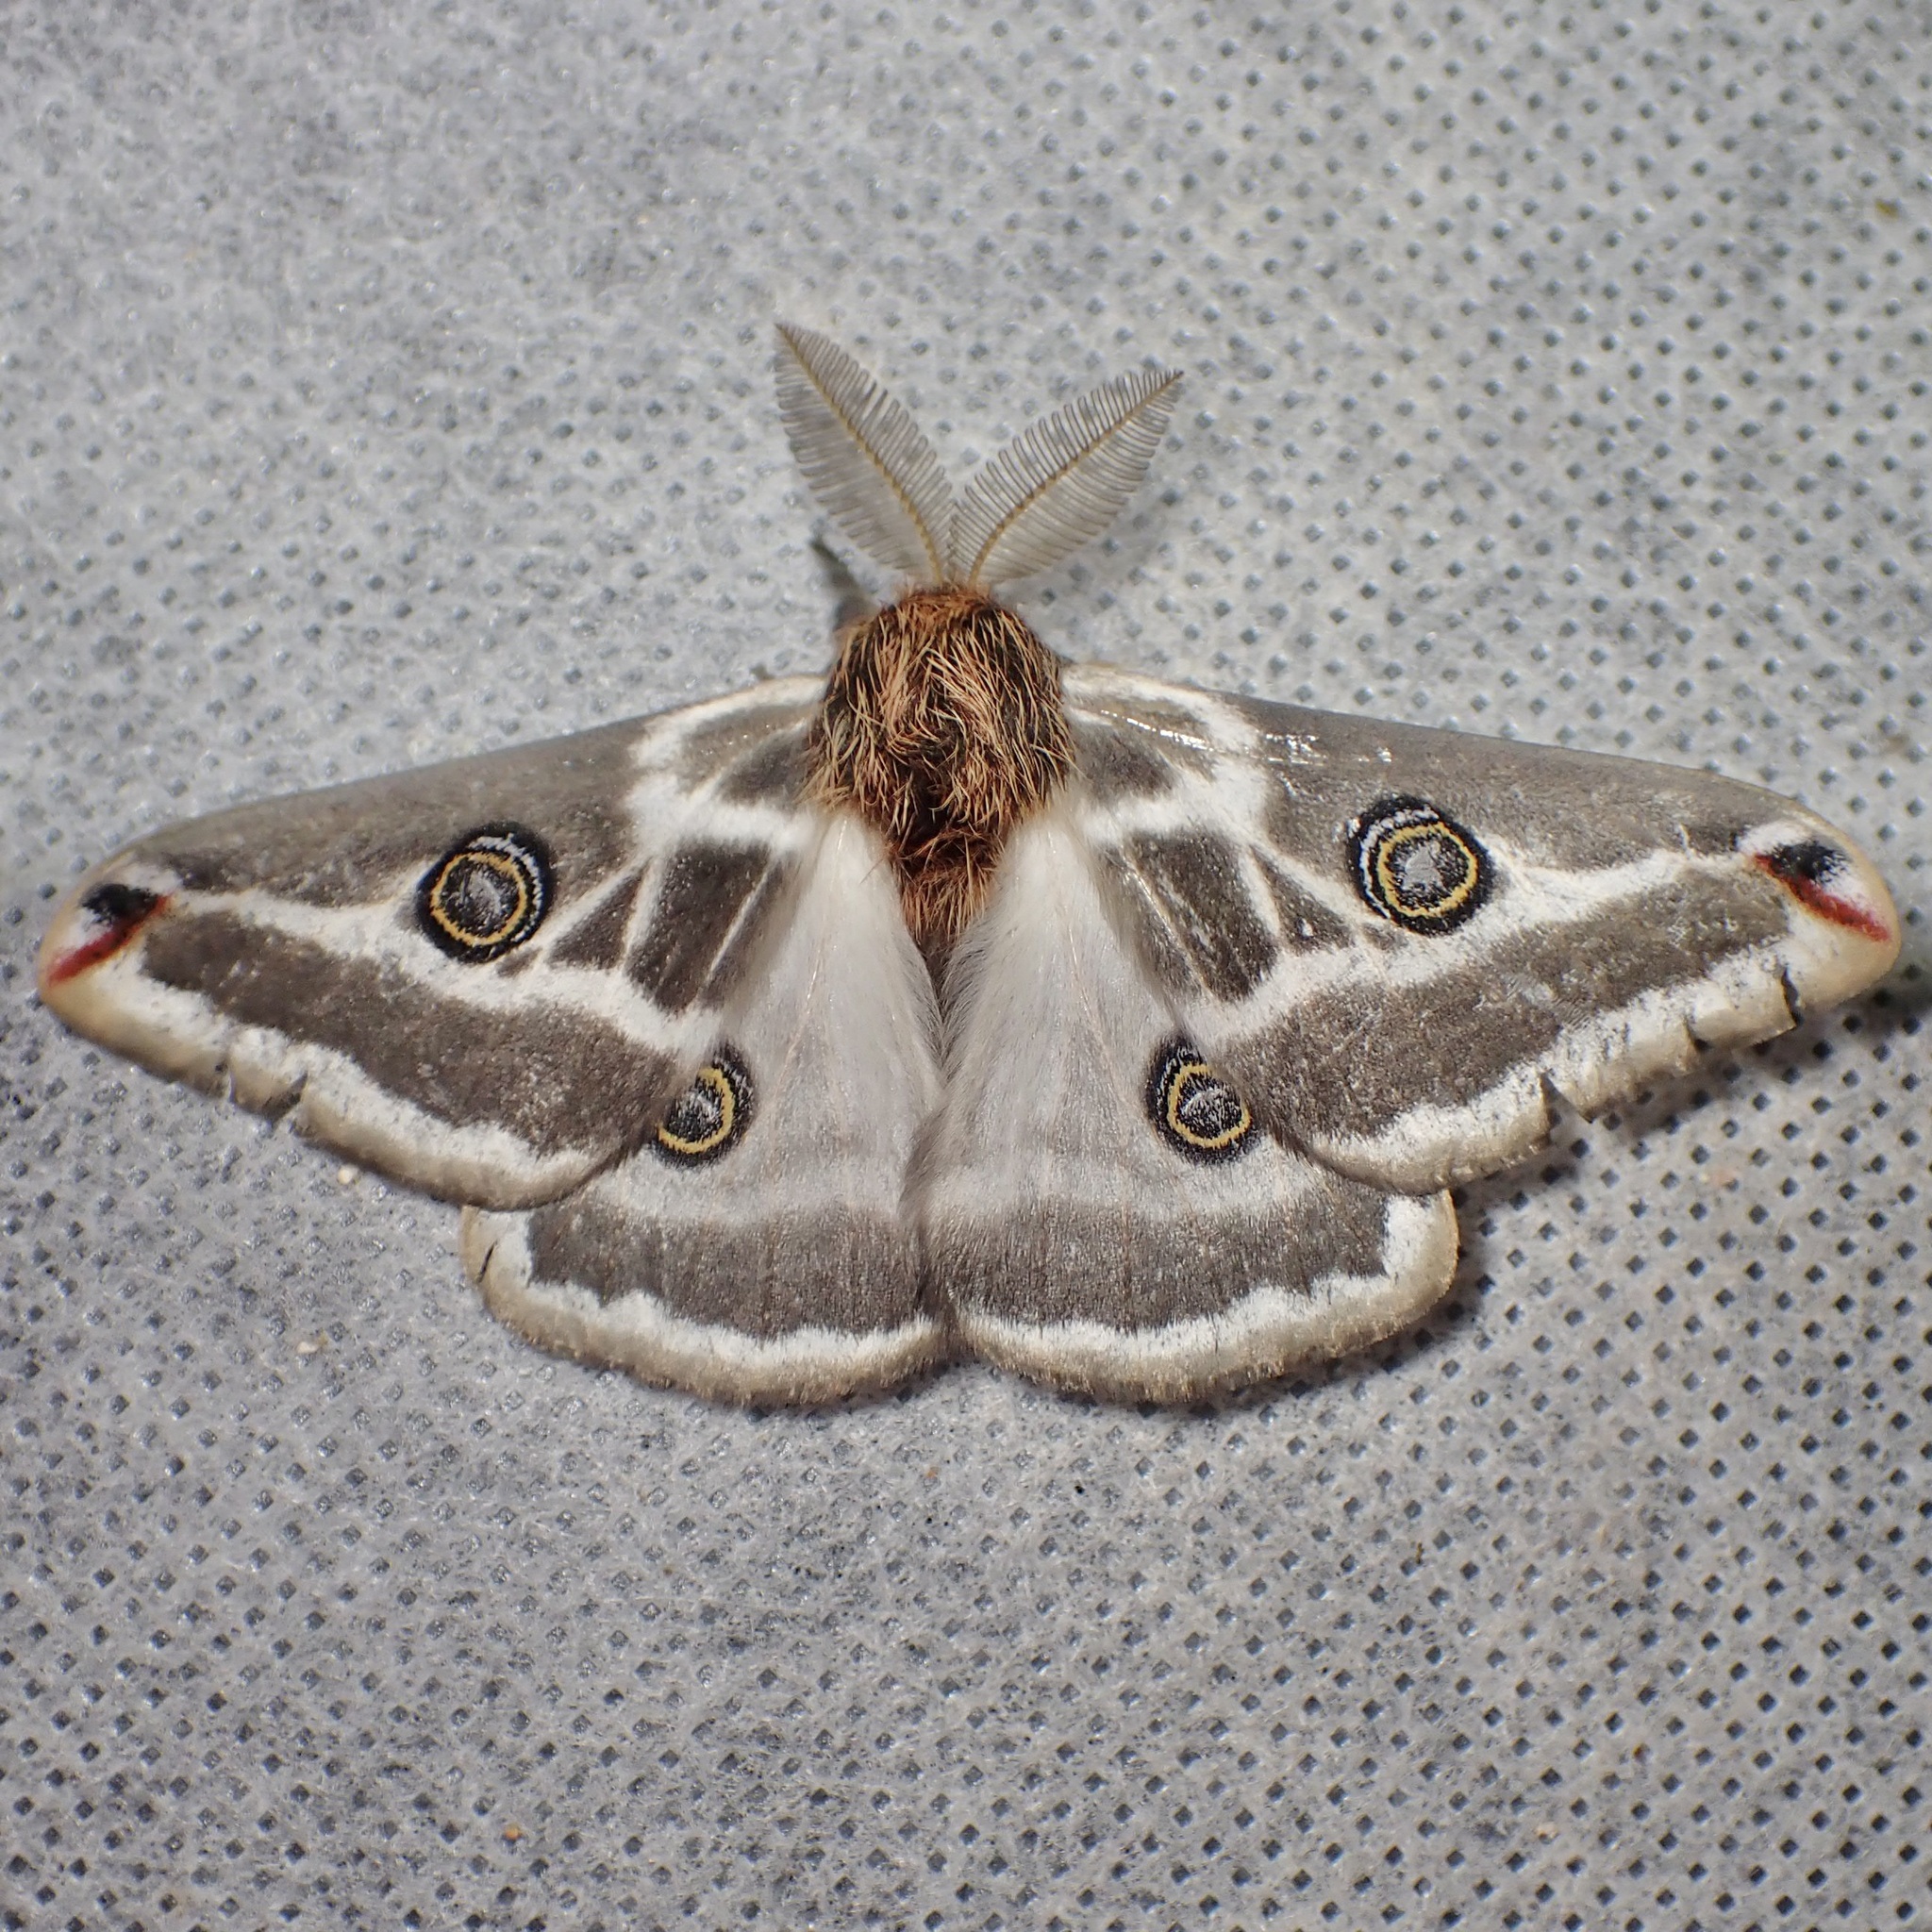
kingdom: Animalia
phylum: Arthropoda
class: Insecta
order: Lepidoptera
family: Saturniidae
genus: Saturnia
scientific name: Saturnia anona
